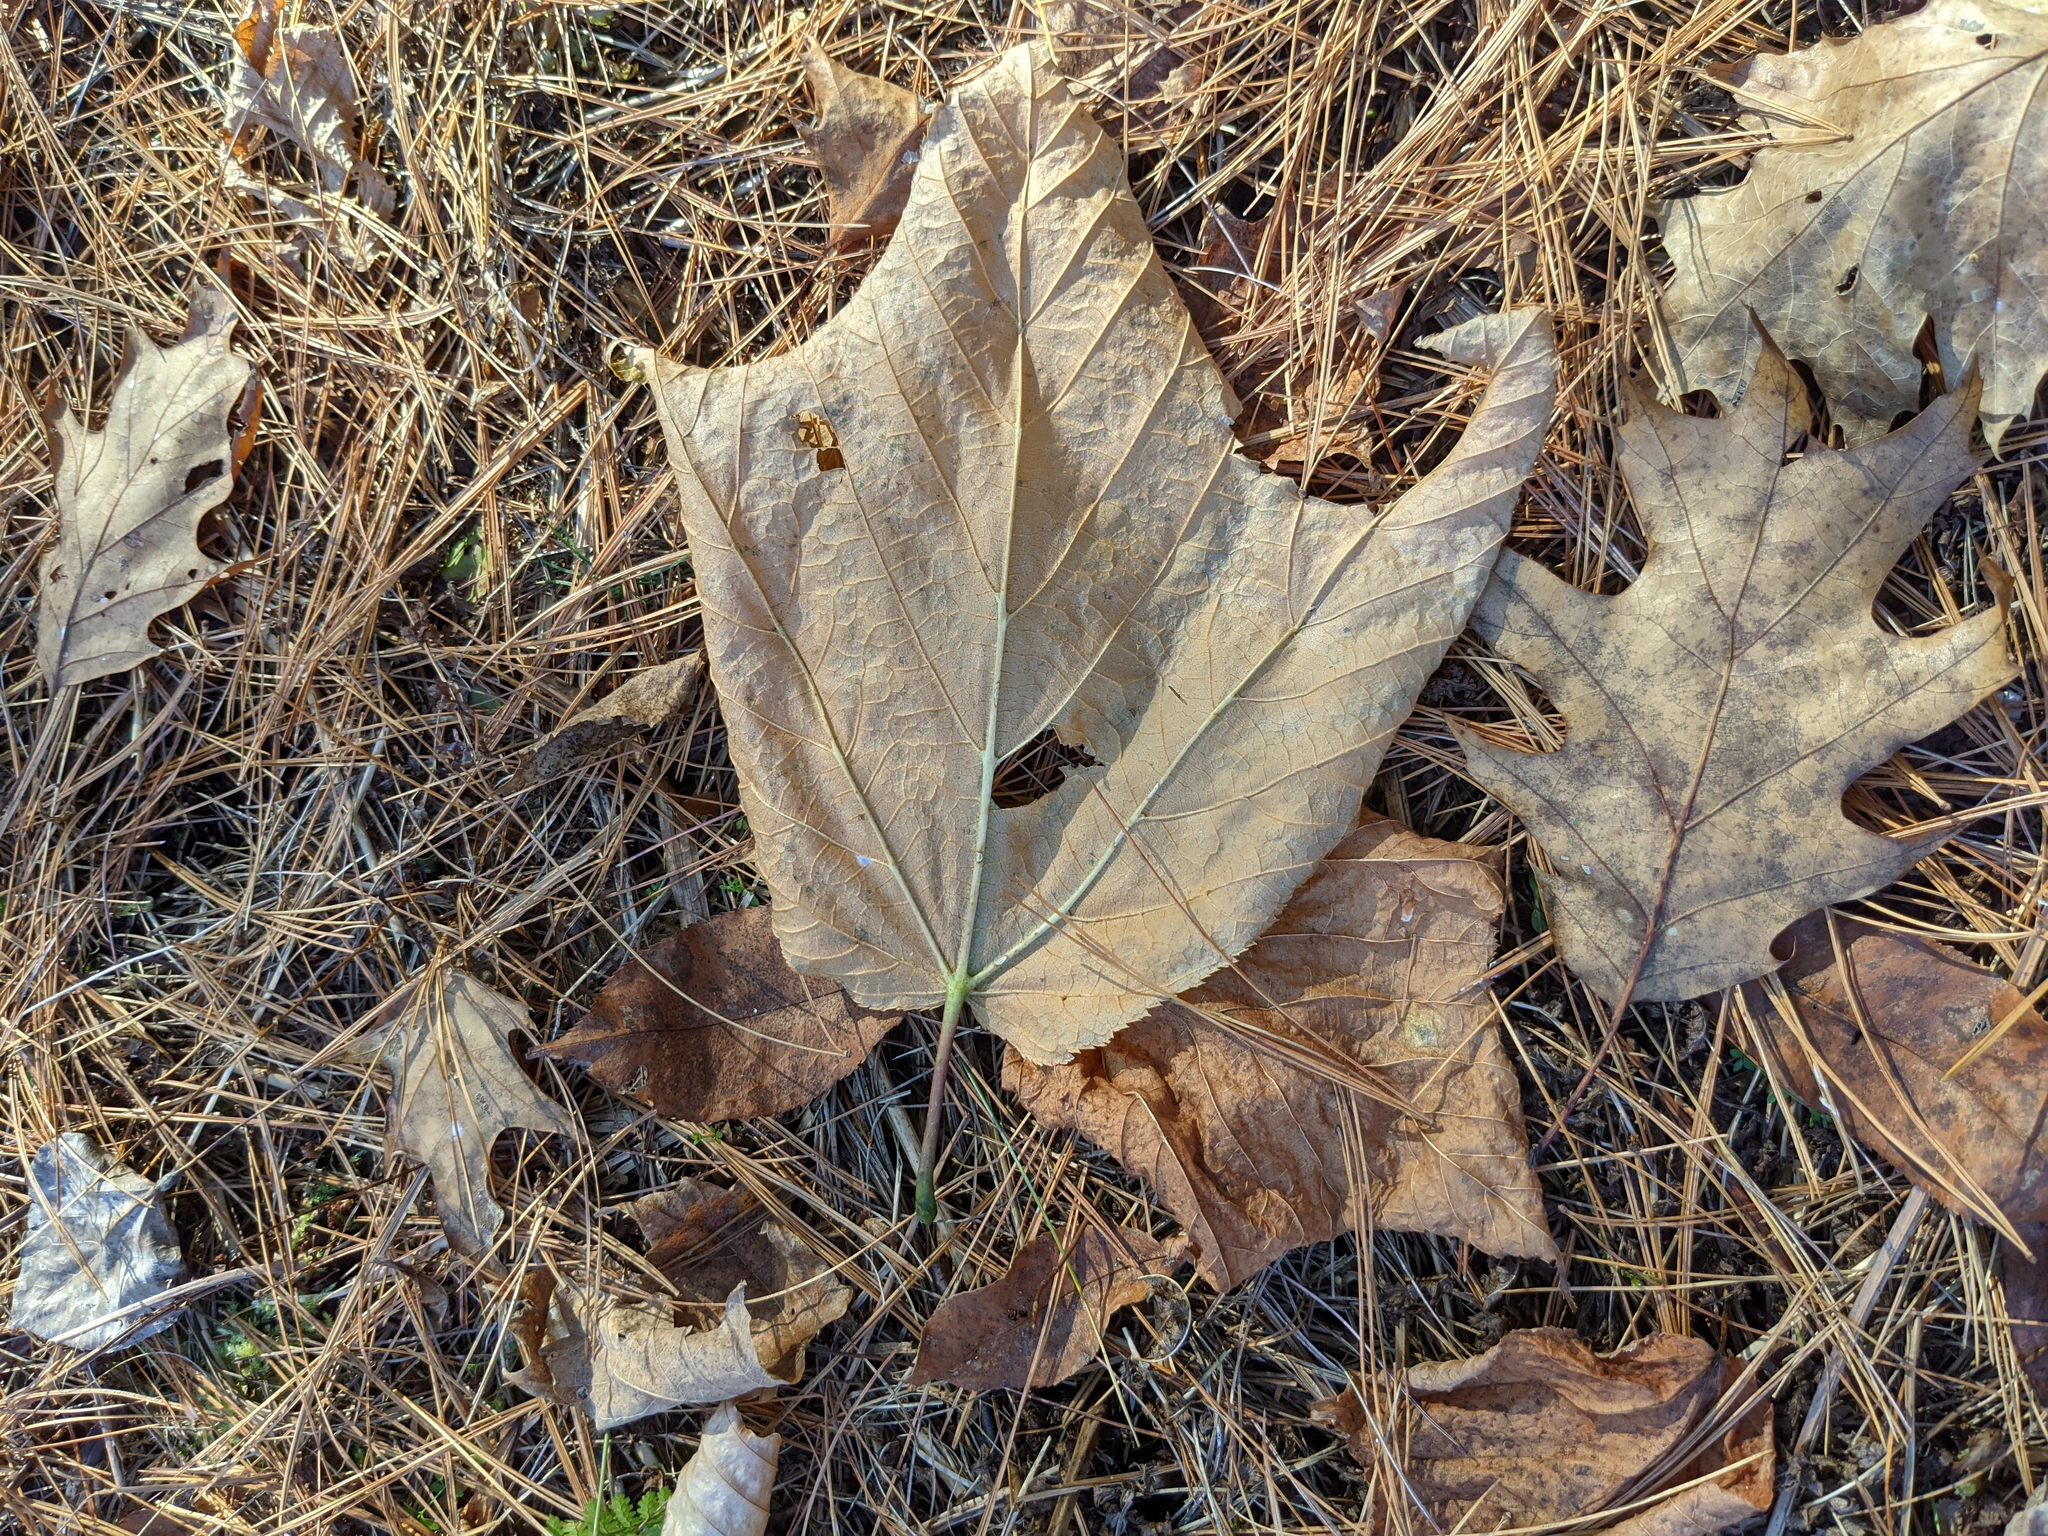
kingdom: Plantae
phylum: Tracheophyta
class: Magnoliopsida
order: Sapindales
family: Sapindaceae
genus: Acer
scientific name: Acer pensylvanicum
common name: Moosewood
